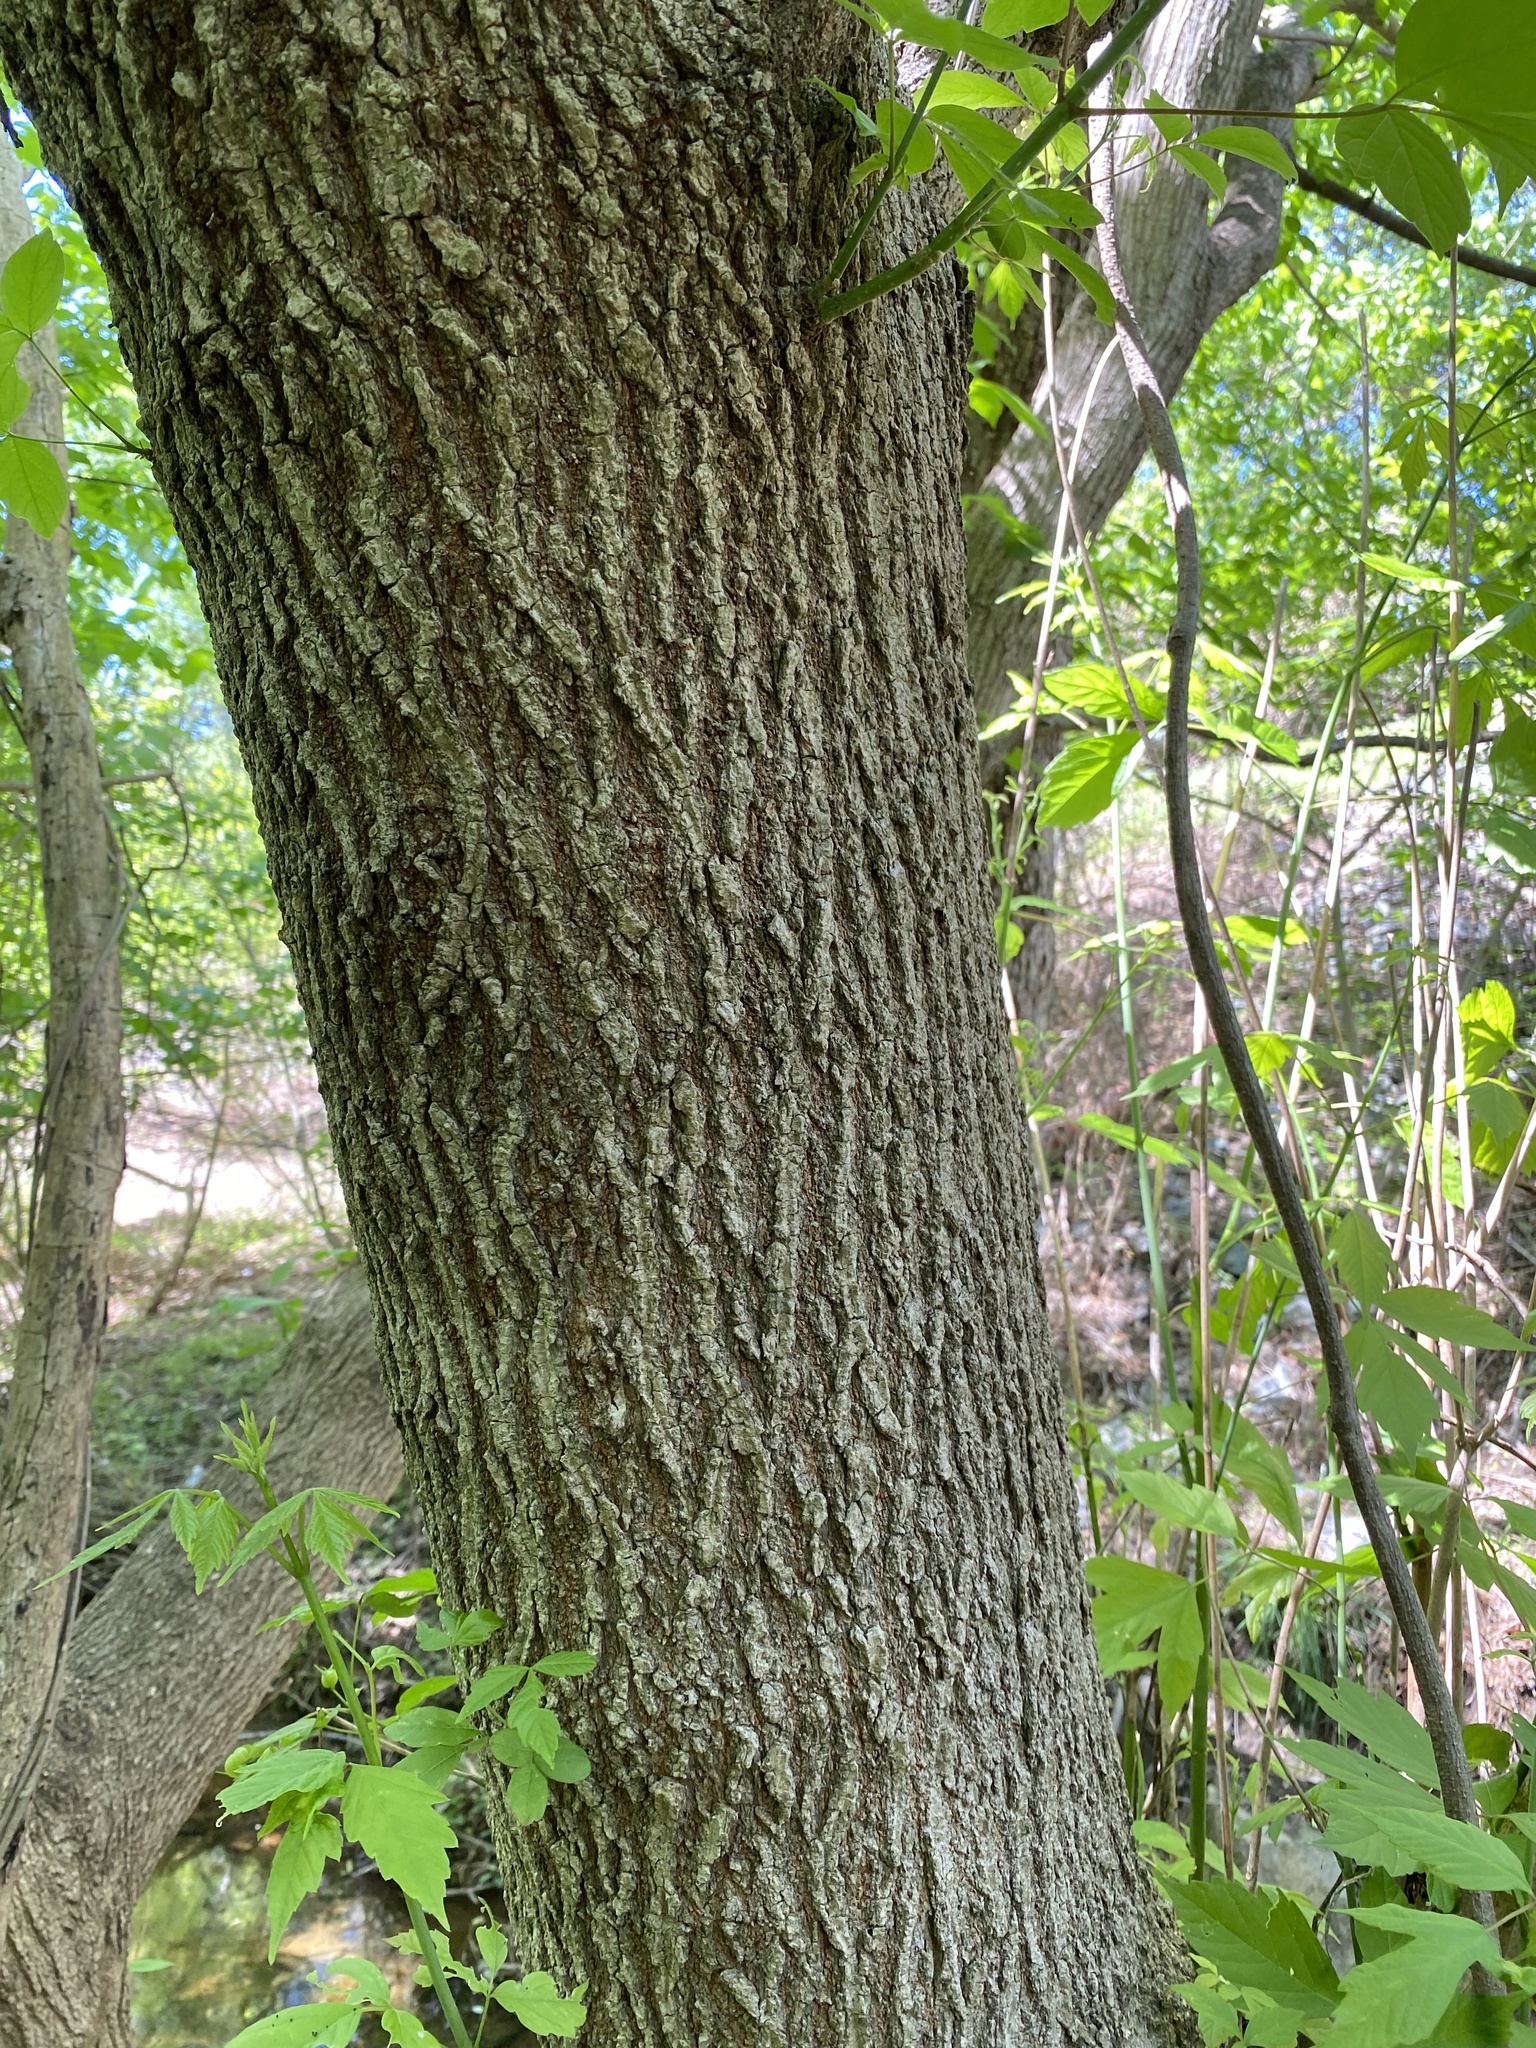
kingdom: Plantae
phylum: Tracheophyta
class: Magnoliopsida
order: Sapindales
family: Sapindaceae
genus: Acer
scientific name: Acer negundo
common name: Ashleaf maple
